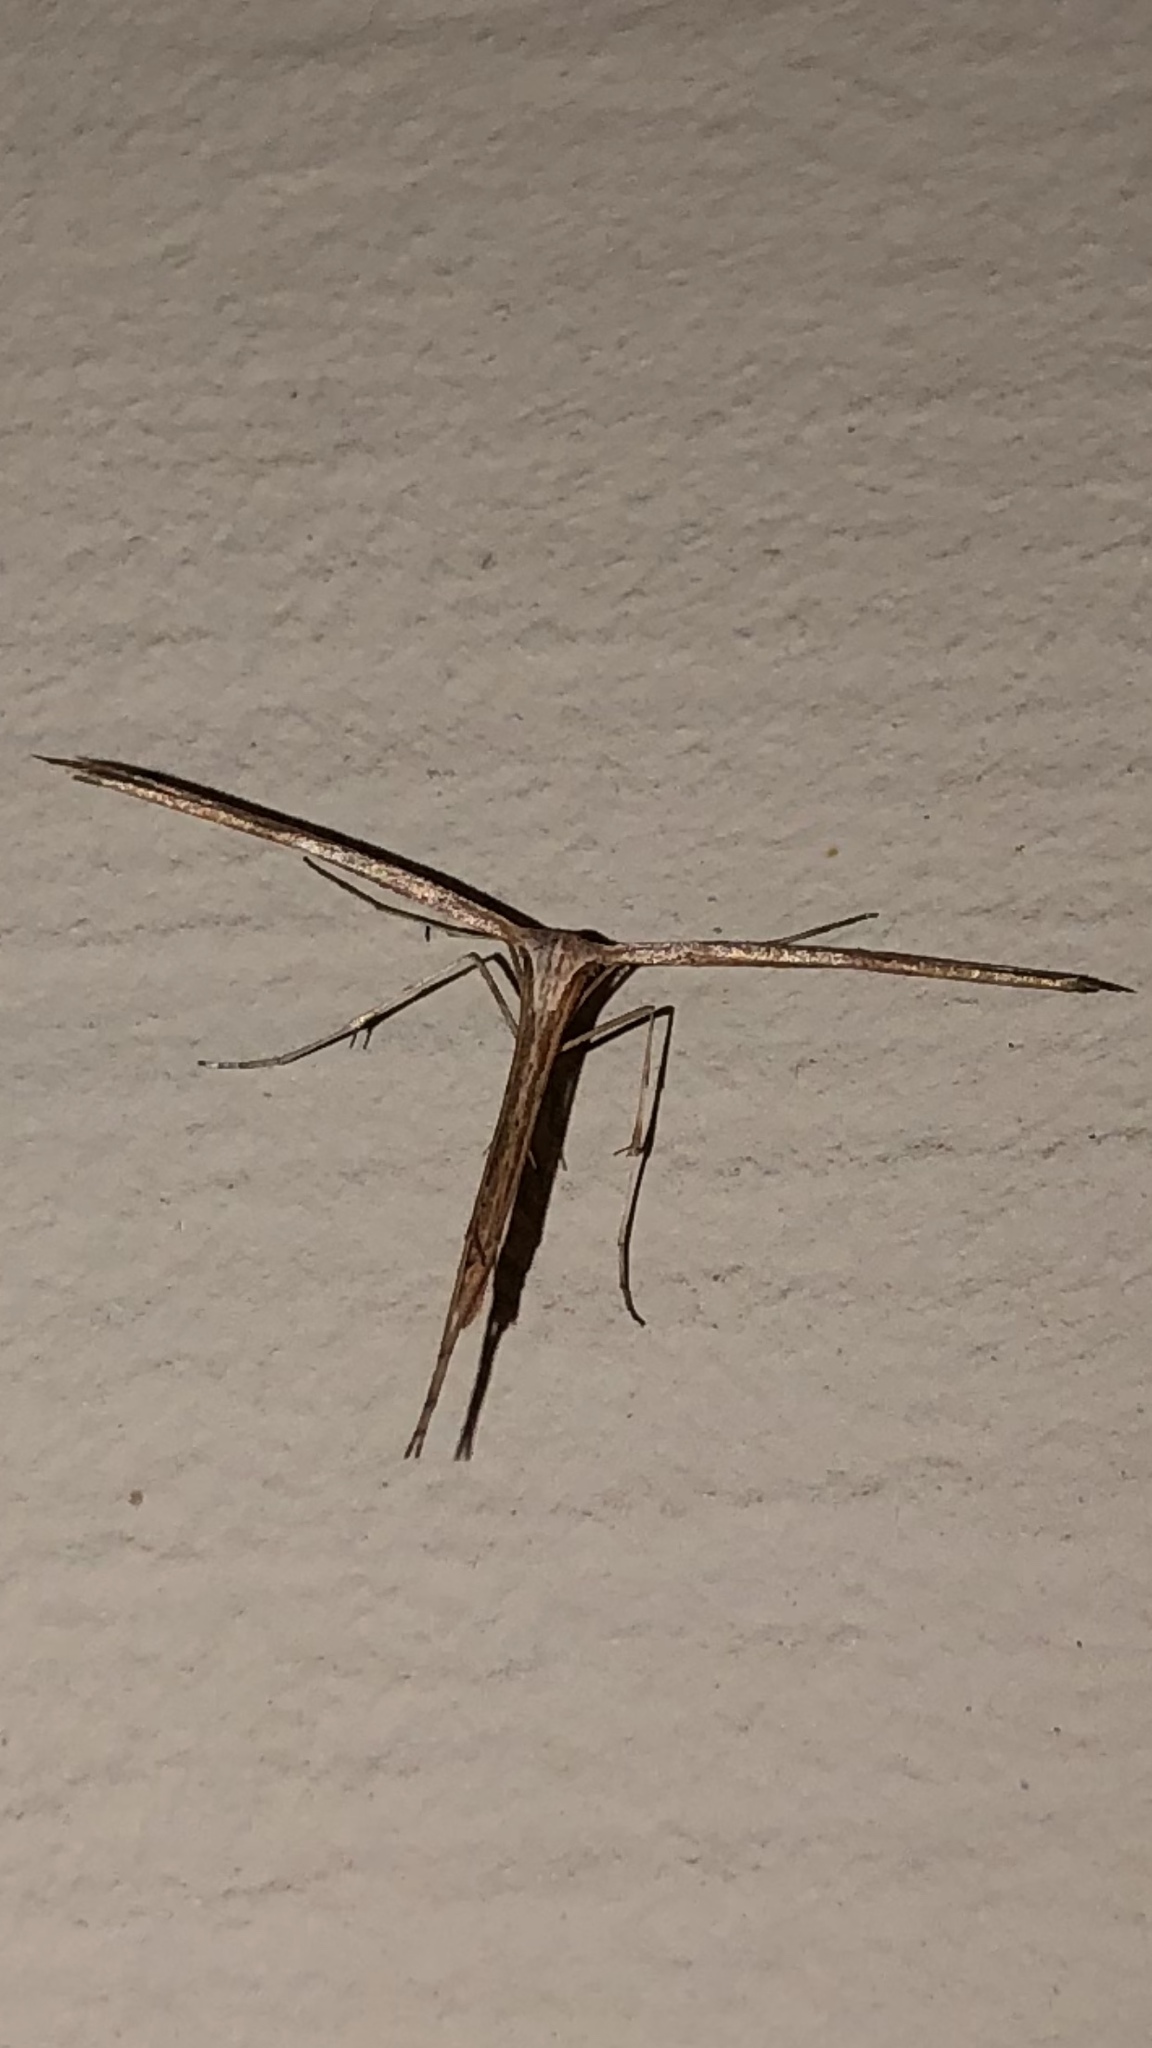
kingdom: Animalia
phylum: Arthropoda
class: Insecta
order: Lepidoptera
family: Pterophoridae
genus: Emmelina
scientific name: Emmelina monodactyla
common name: Common plume
